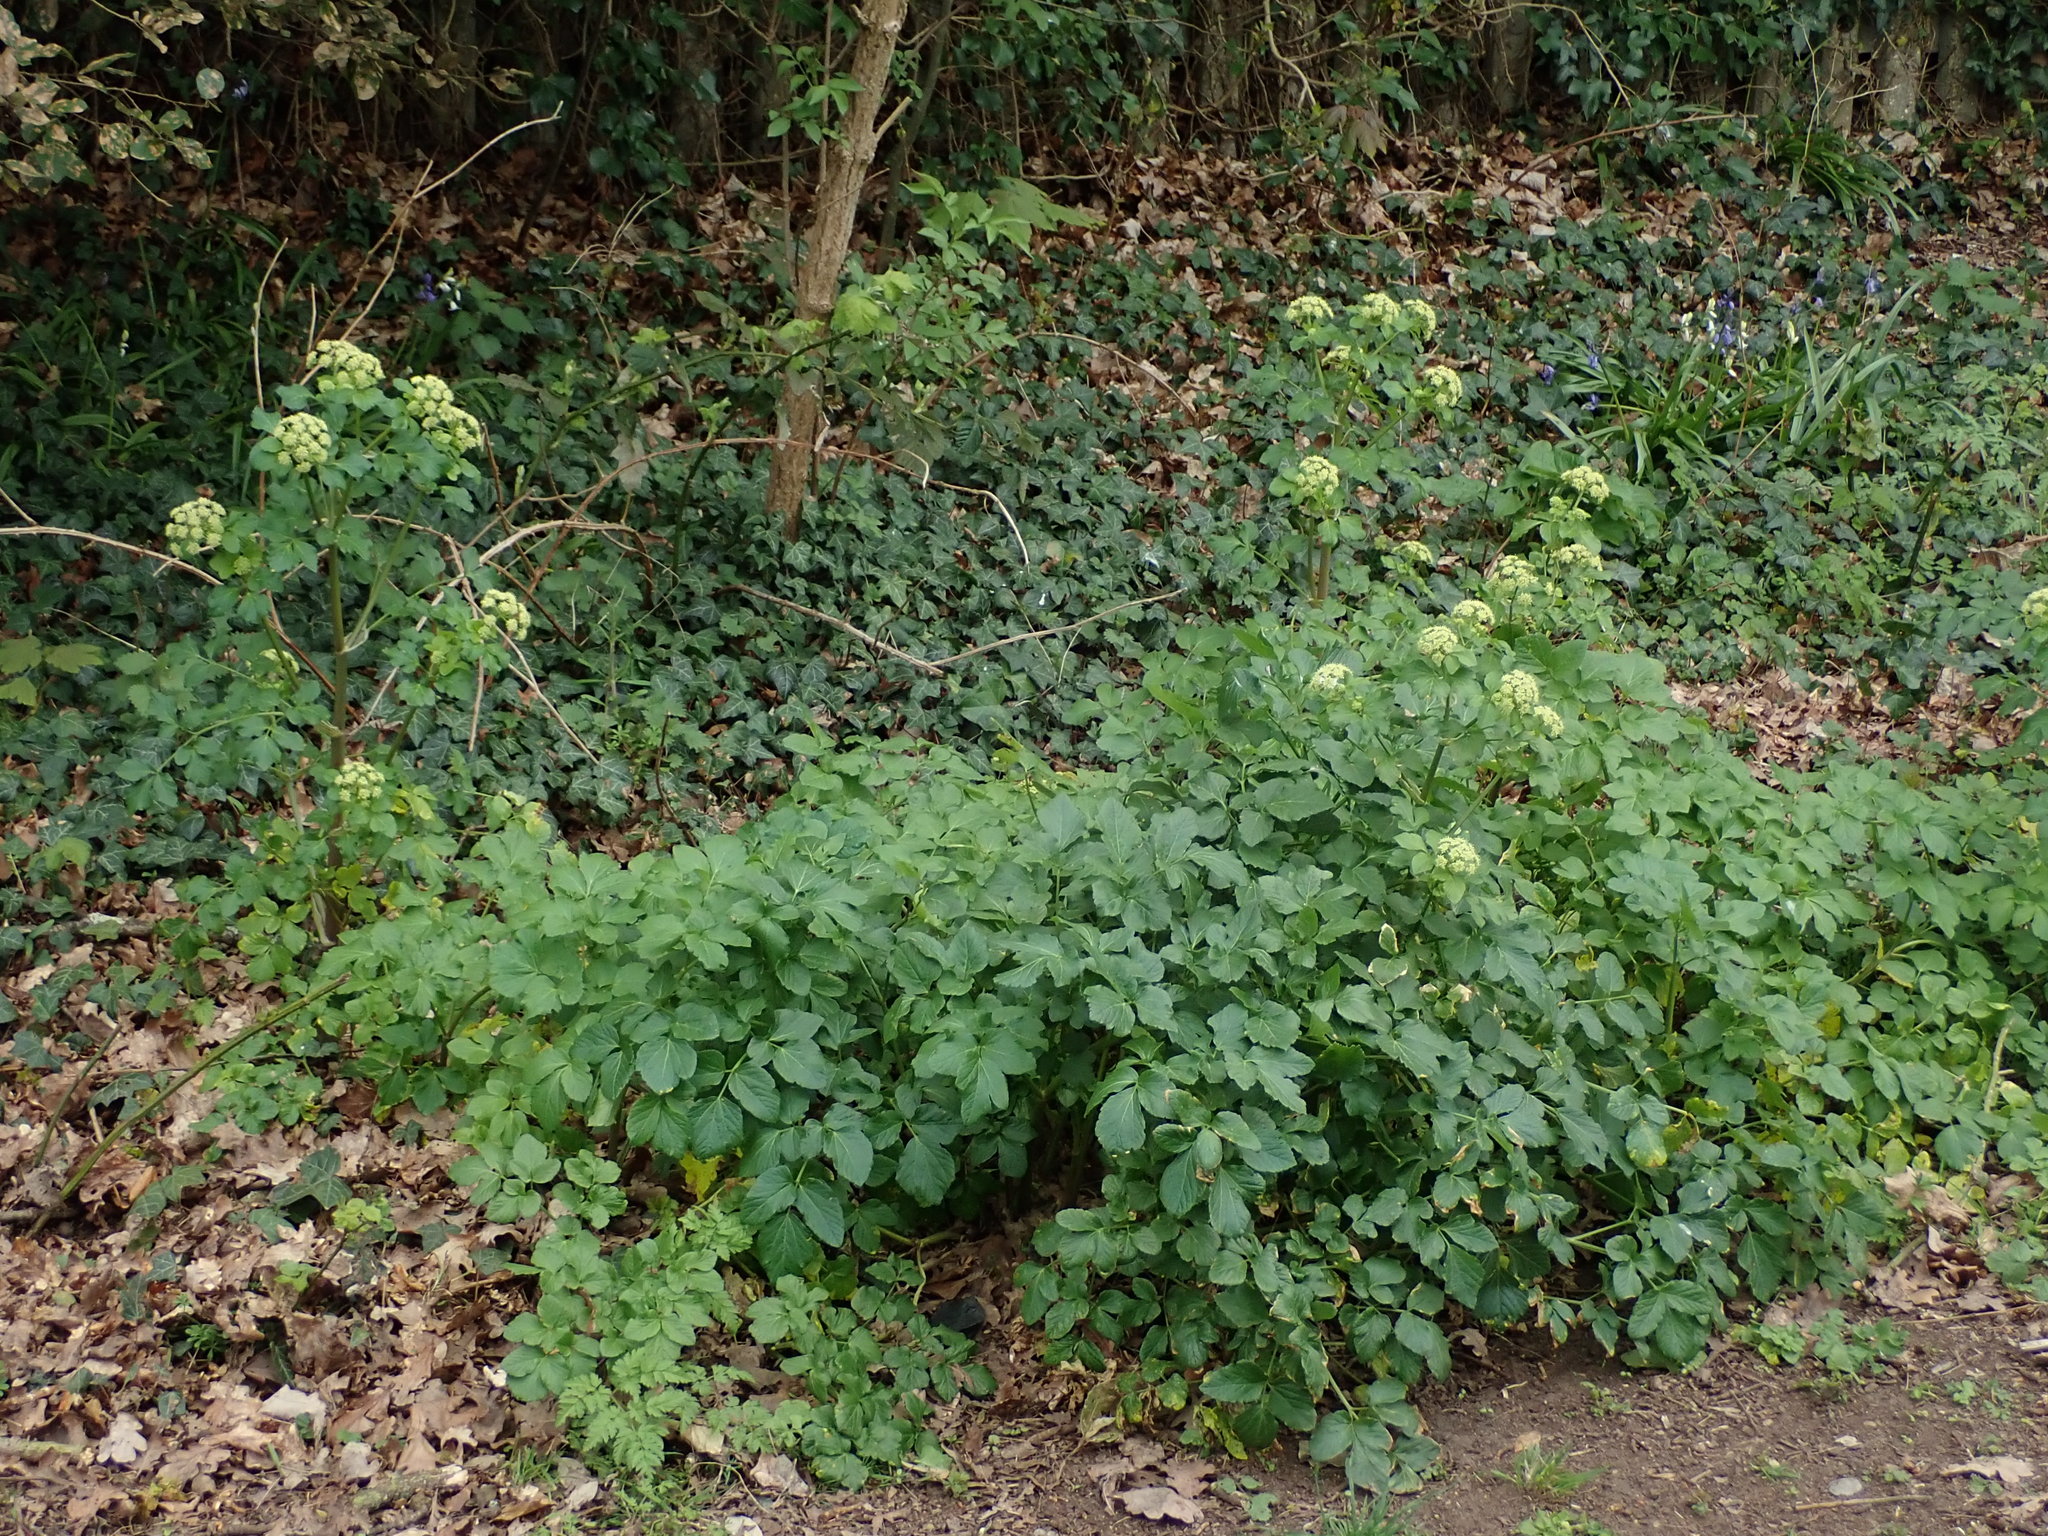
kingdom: Plantae
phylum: Tracheophyta
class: Magnoliopsida
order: Apiales
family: Apiaceae
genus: Smyrnium
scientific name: Smyrnium olusatrum
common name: Alexanders
